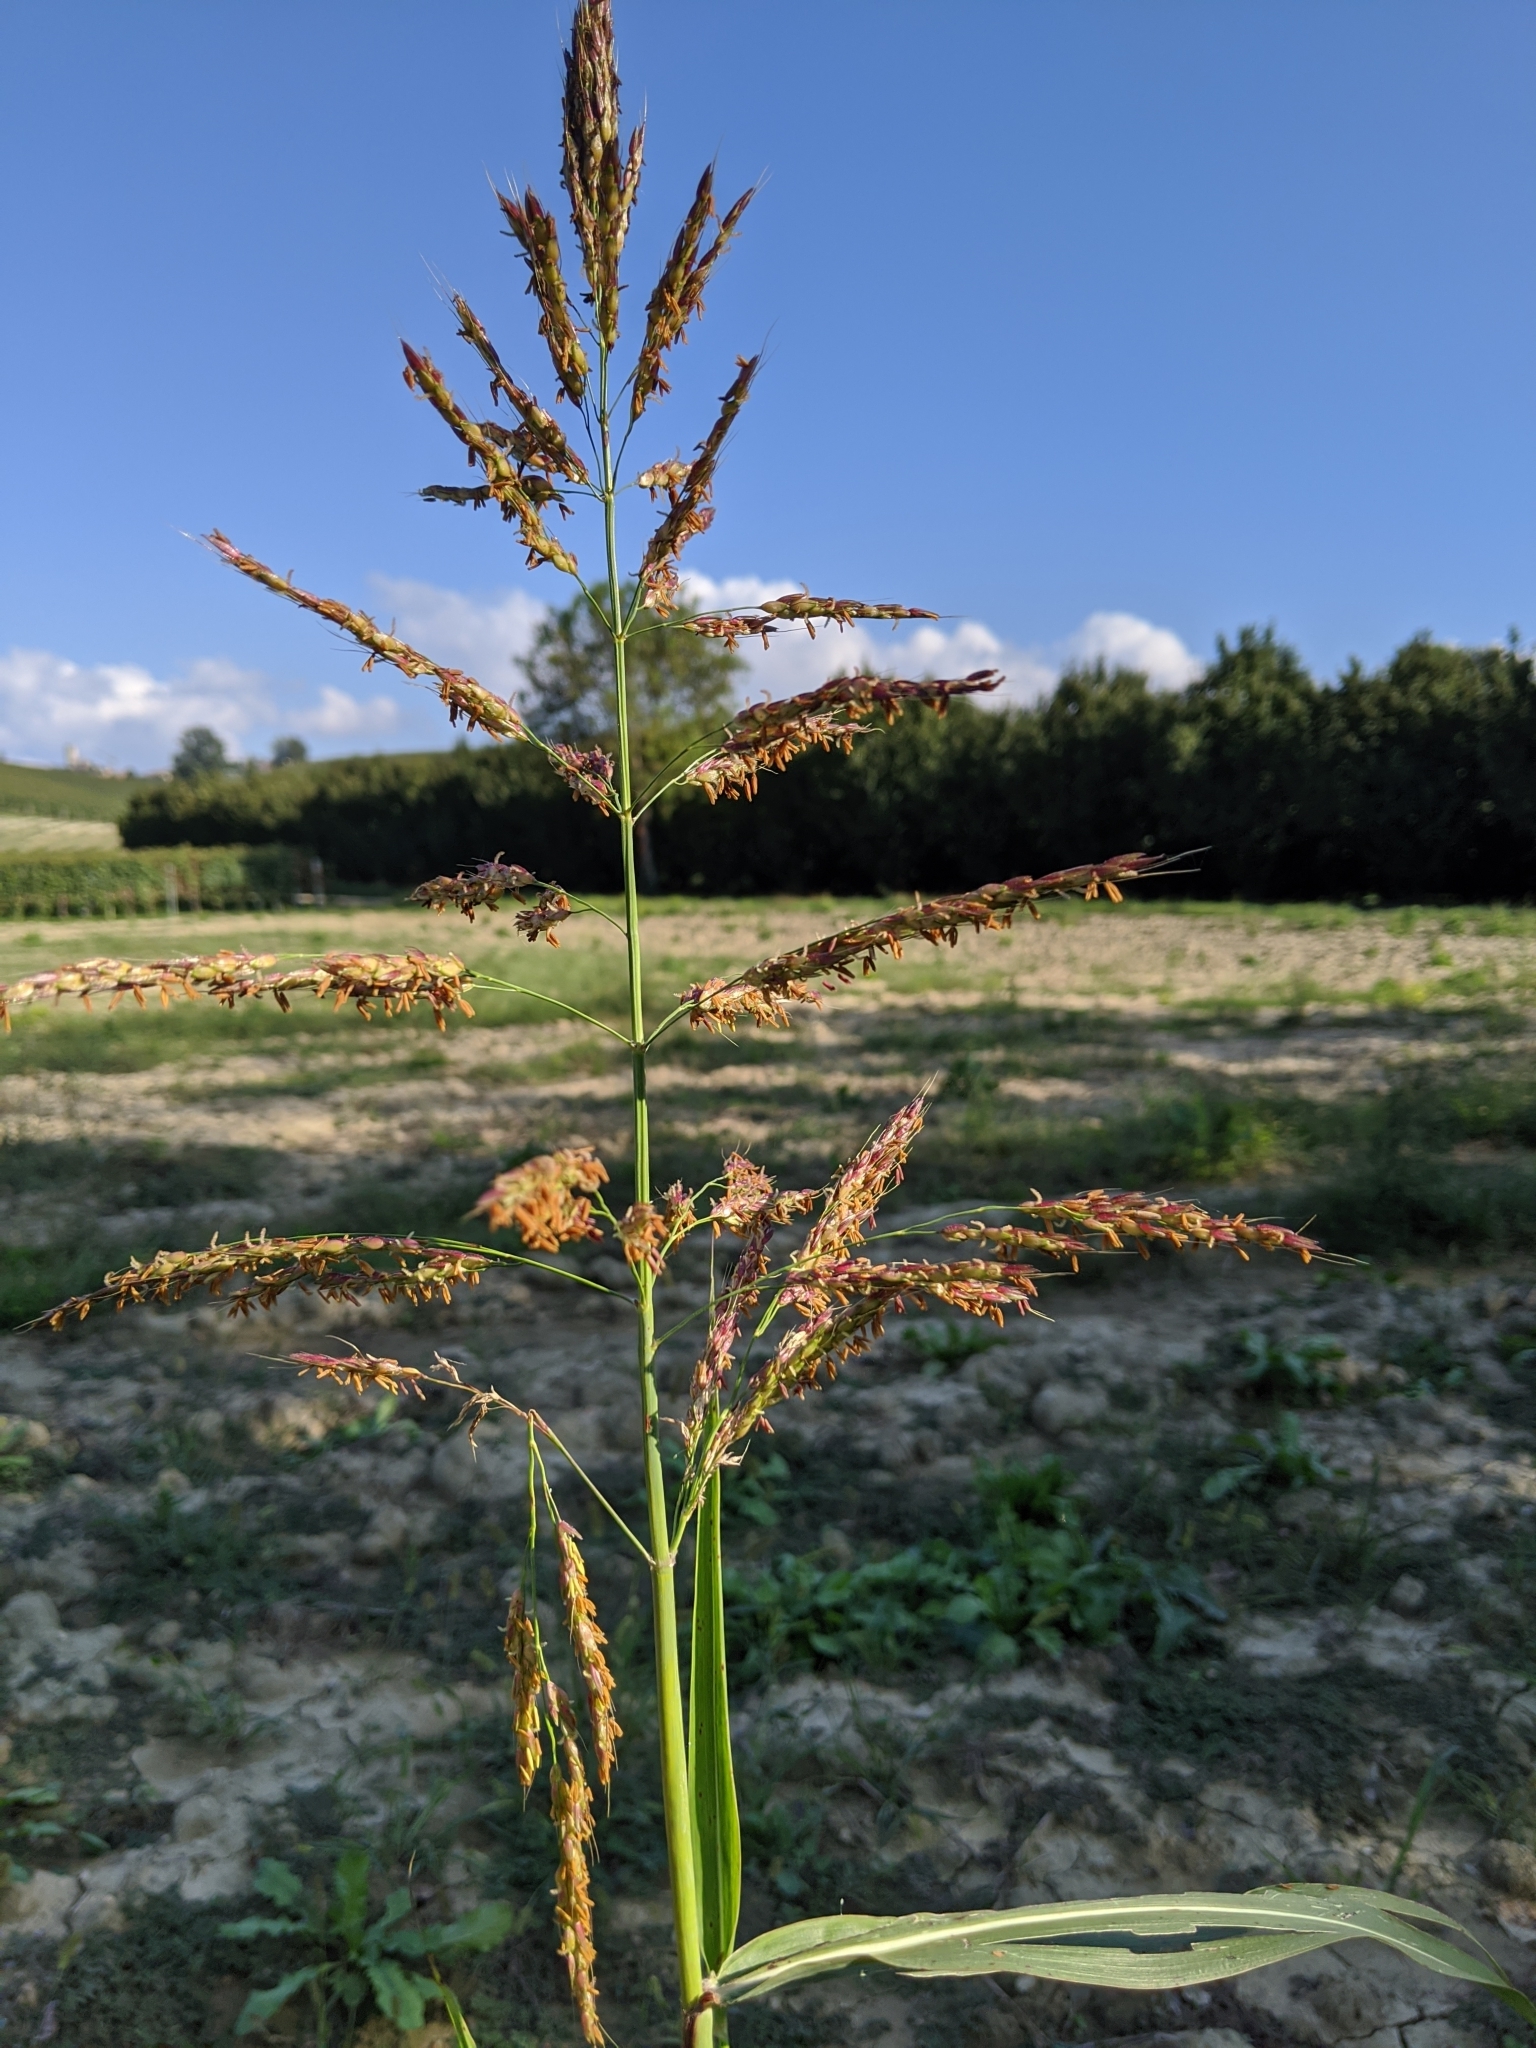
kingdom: Plantae
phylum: Tracheophyta
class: Liliopsida
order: Poales
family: Poaceae
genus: Sorghum
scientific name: Sorghum halepense
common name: Johnson-grass
